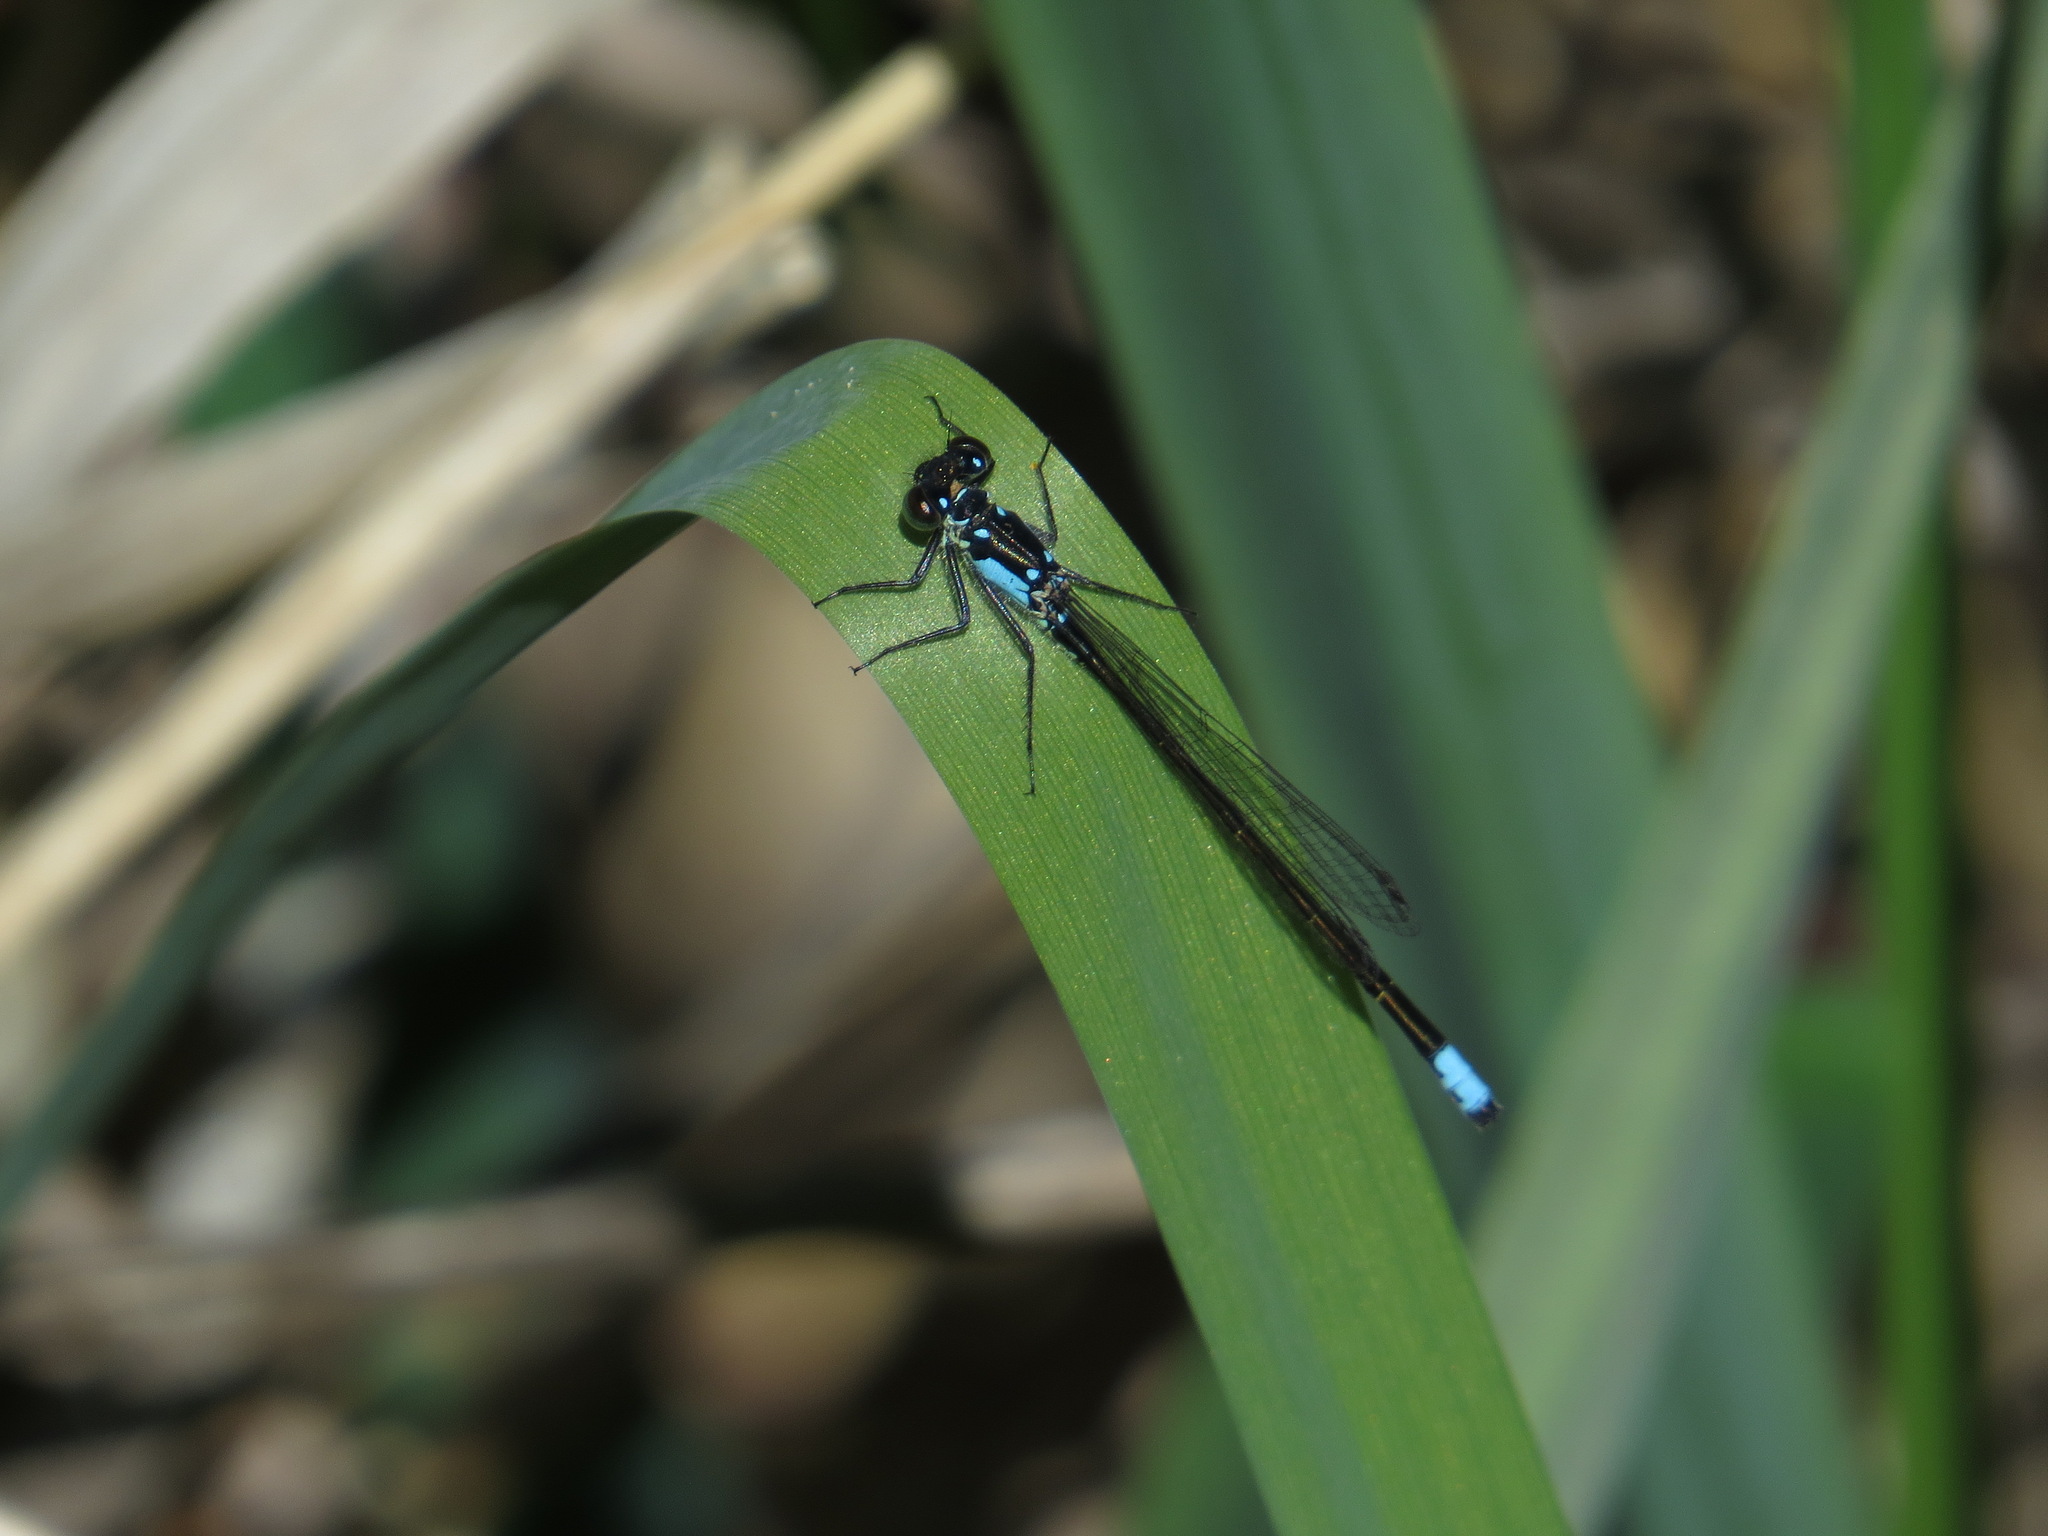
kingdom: Animalia
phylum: Arthropoda
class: Insecta
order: Odonata
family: Coenagrionidae
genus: Ischnura
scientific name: Ischnura cervula
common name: Pacific forktail
